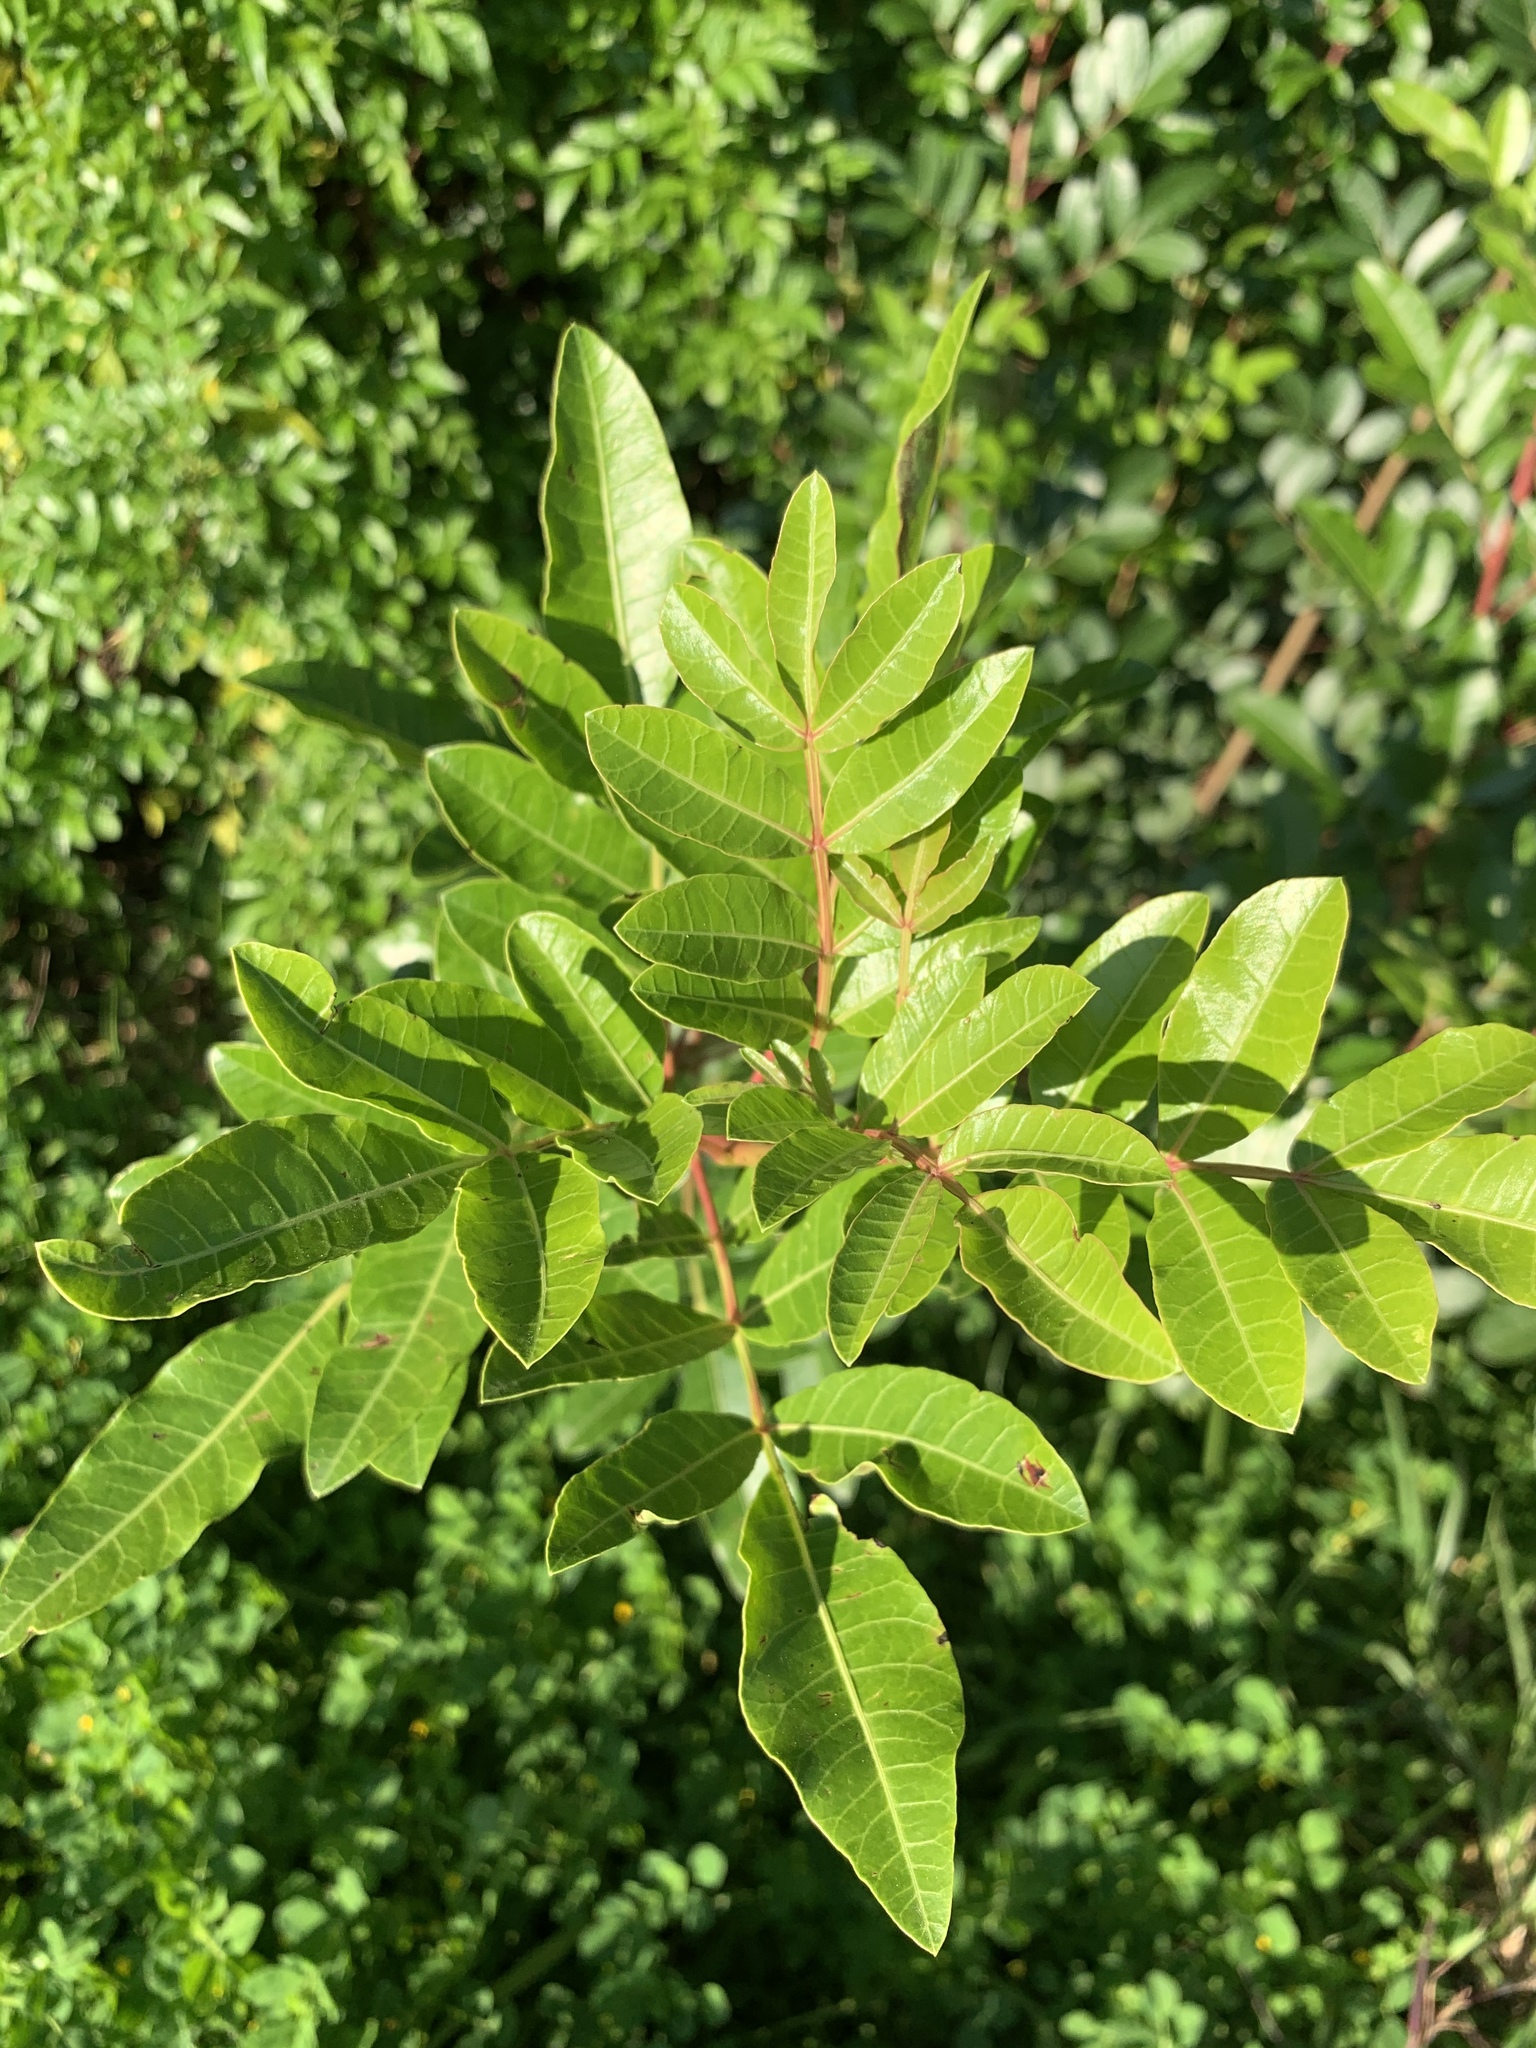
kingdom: Plantae
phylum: Tracheophyta
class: Magnoliopsida
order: Sapindales
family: Anacardiaceae
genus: Schinus
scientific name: Schinus terebinthifolia
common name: Brazilian peppertree
